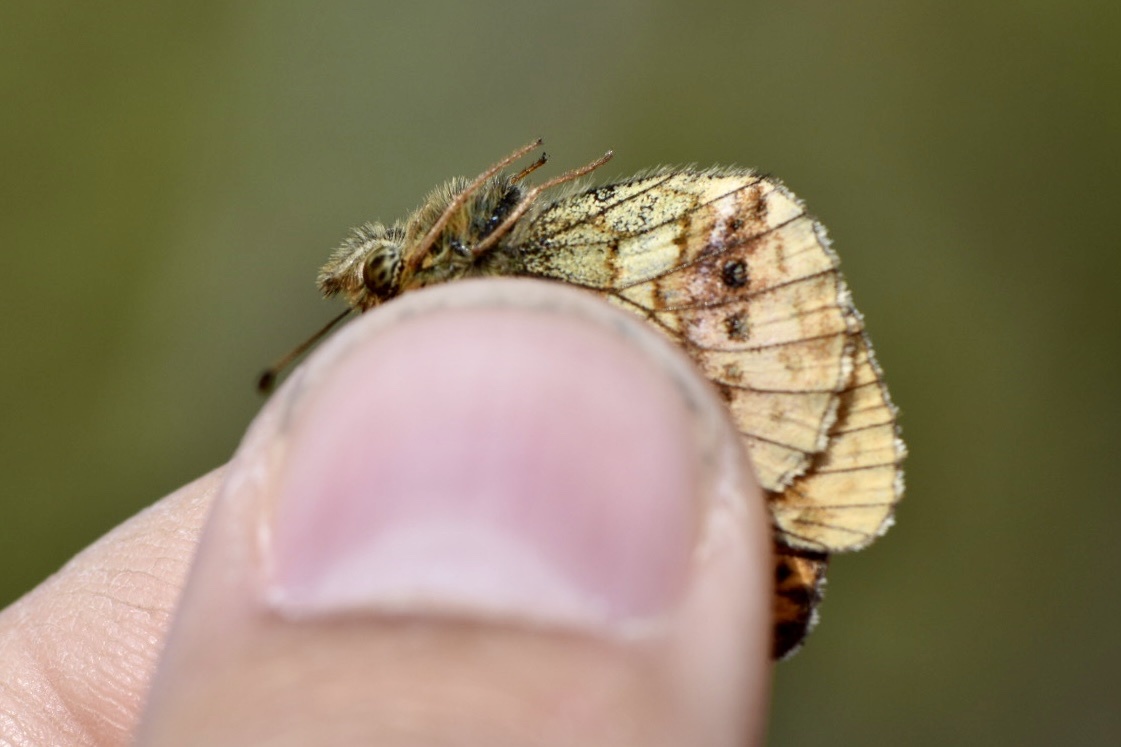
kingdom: Animalia
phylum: Arthropoda
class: Insecta
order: Lepidoptera
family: Nymphalidae
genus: Brenthis
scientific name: Brenthis ino
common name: Lesser marbled fritillary
